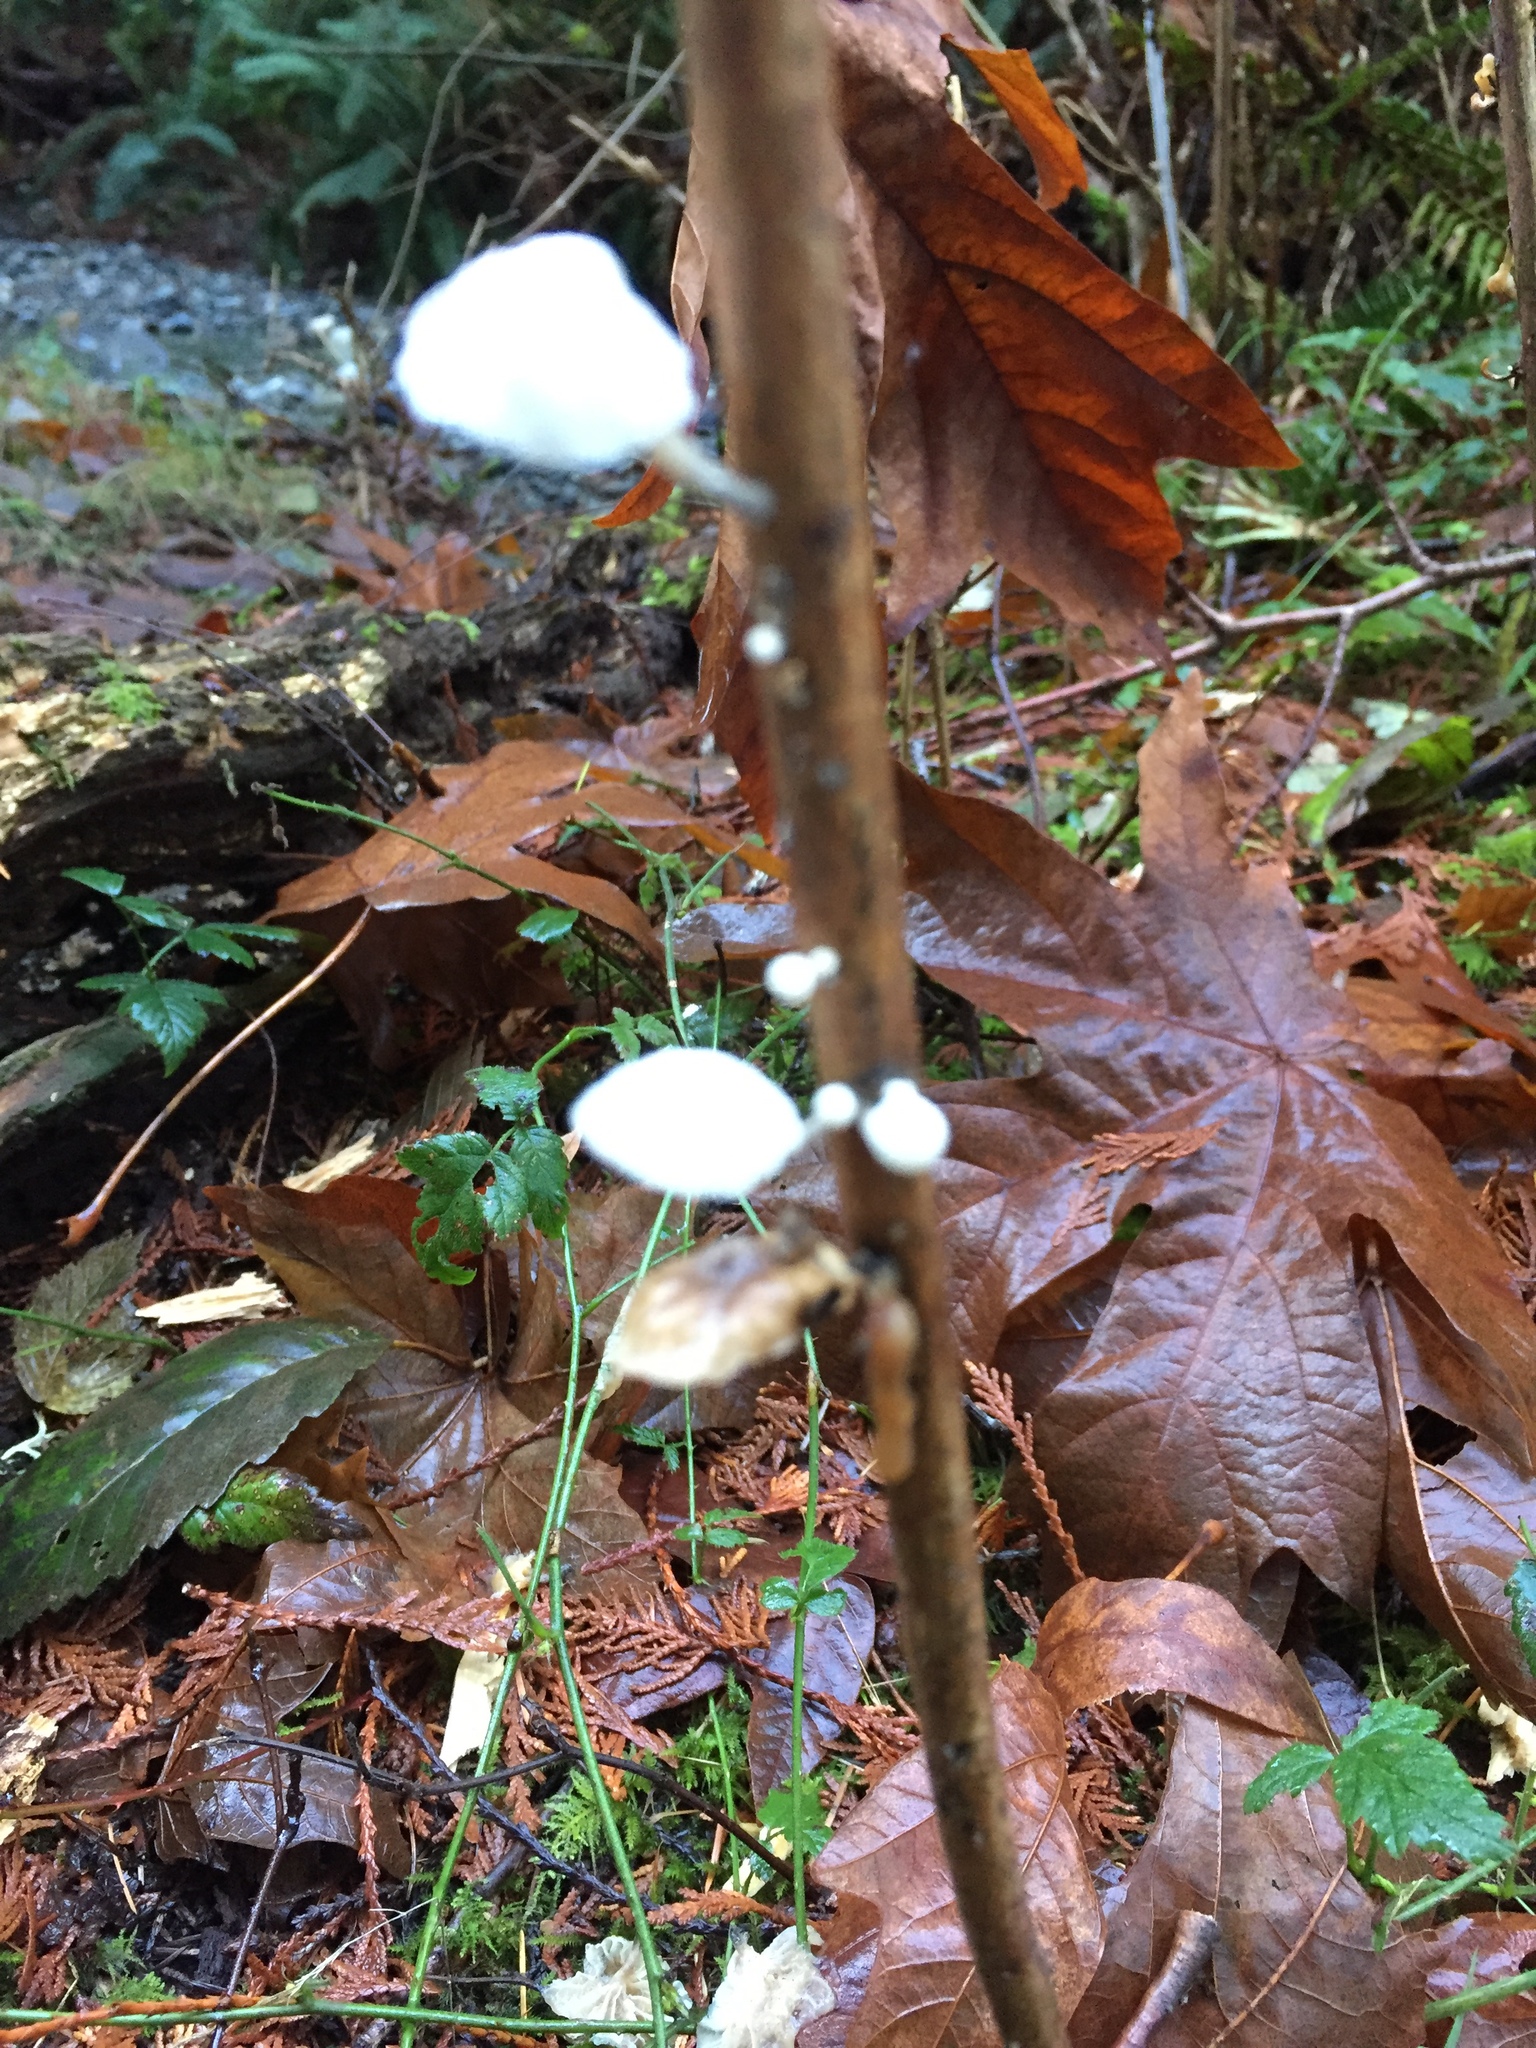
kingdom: Fungi
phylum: Basidiomycota
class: Agaricomycetes
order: Agaricales
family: Omphalotaceae
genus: Marasmiellus
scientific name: Marasmiellus candidus
